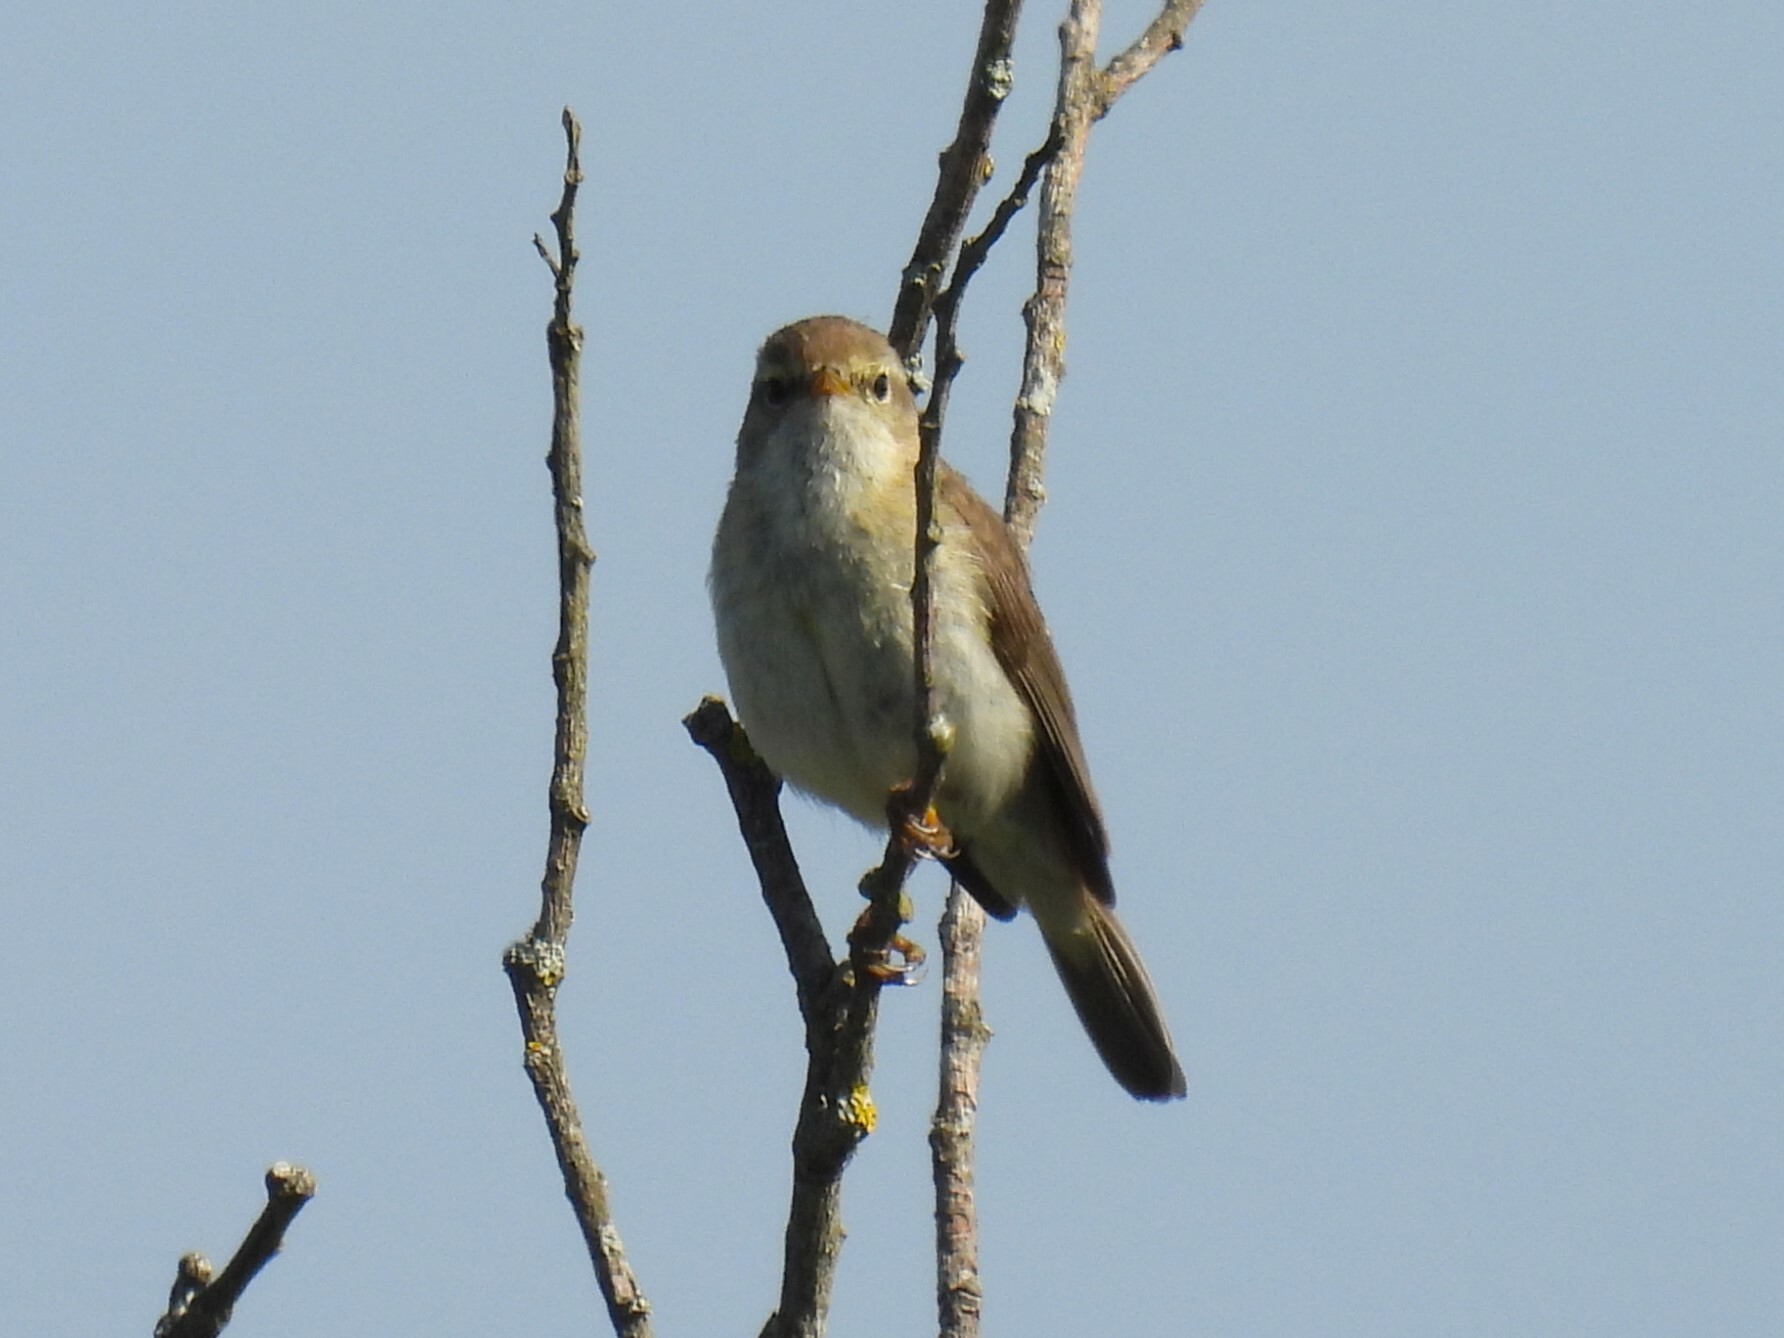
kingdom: Animalia
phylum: Chordata
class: Aves
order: Passeriformes
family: Phylloscopidae
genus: Phylloscopus
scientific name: Phylloscopus trochilus
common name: Willow warbler
